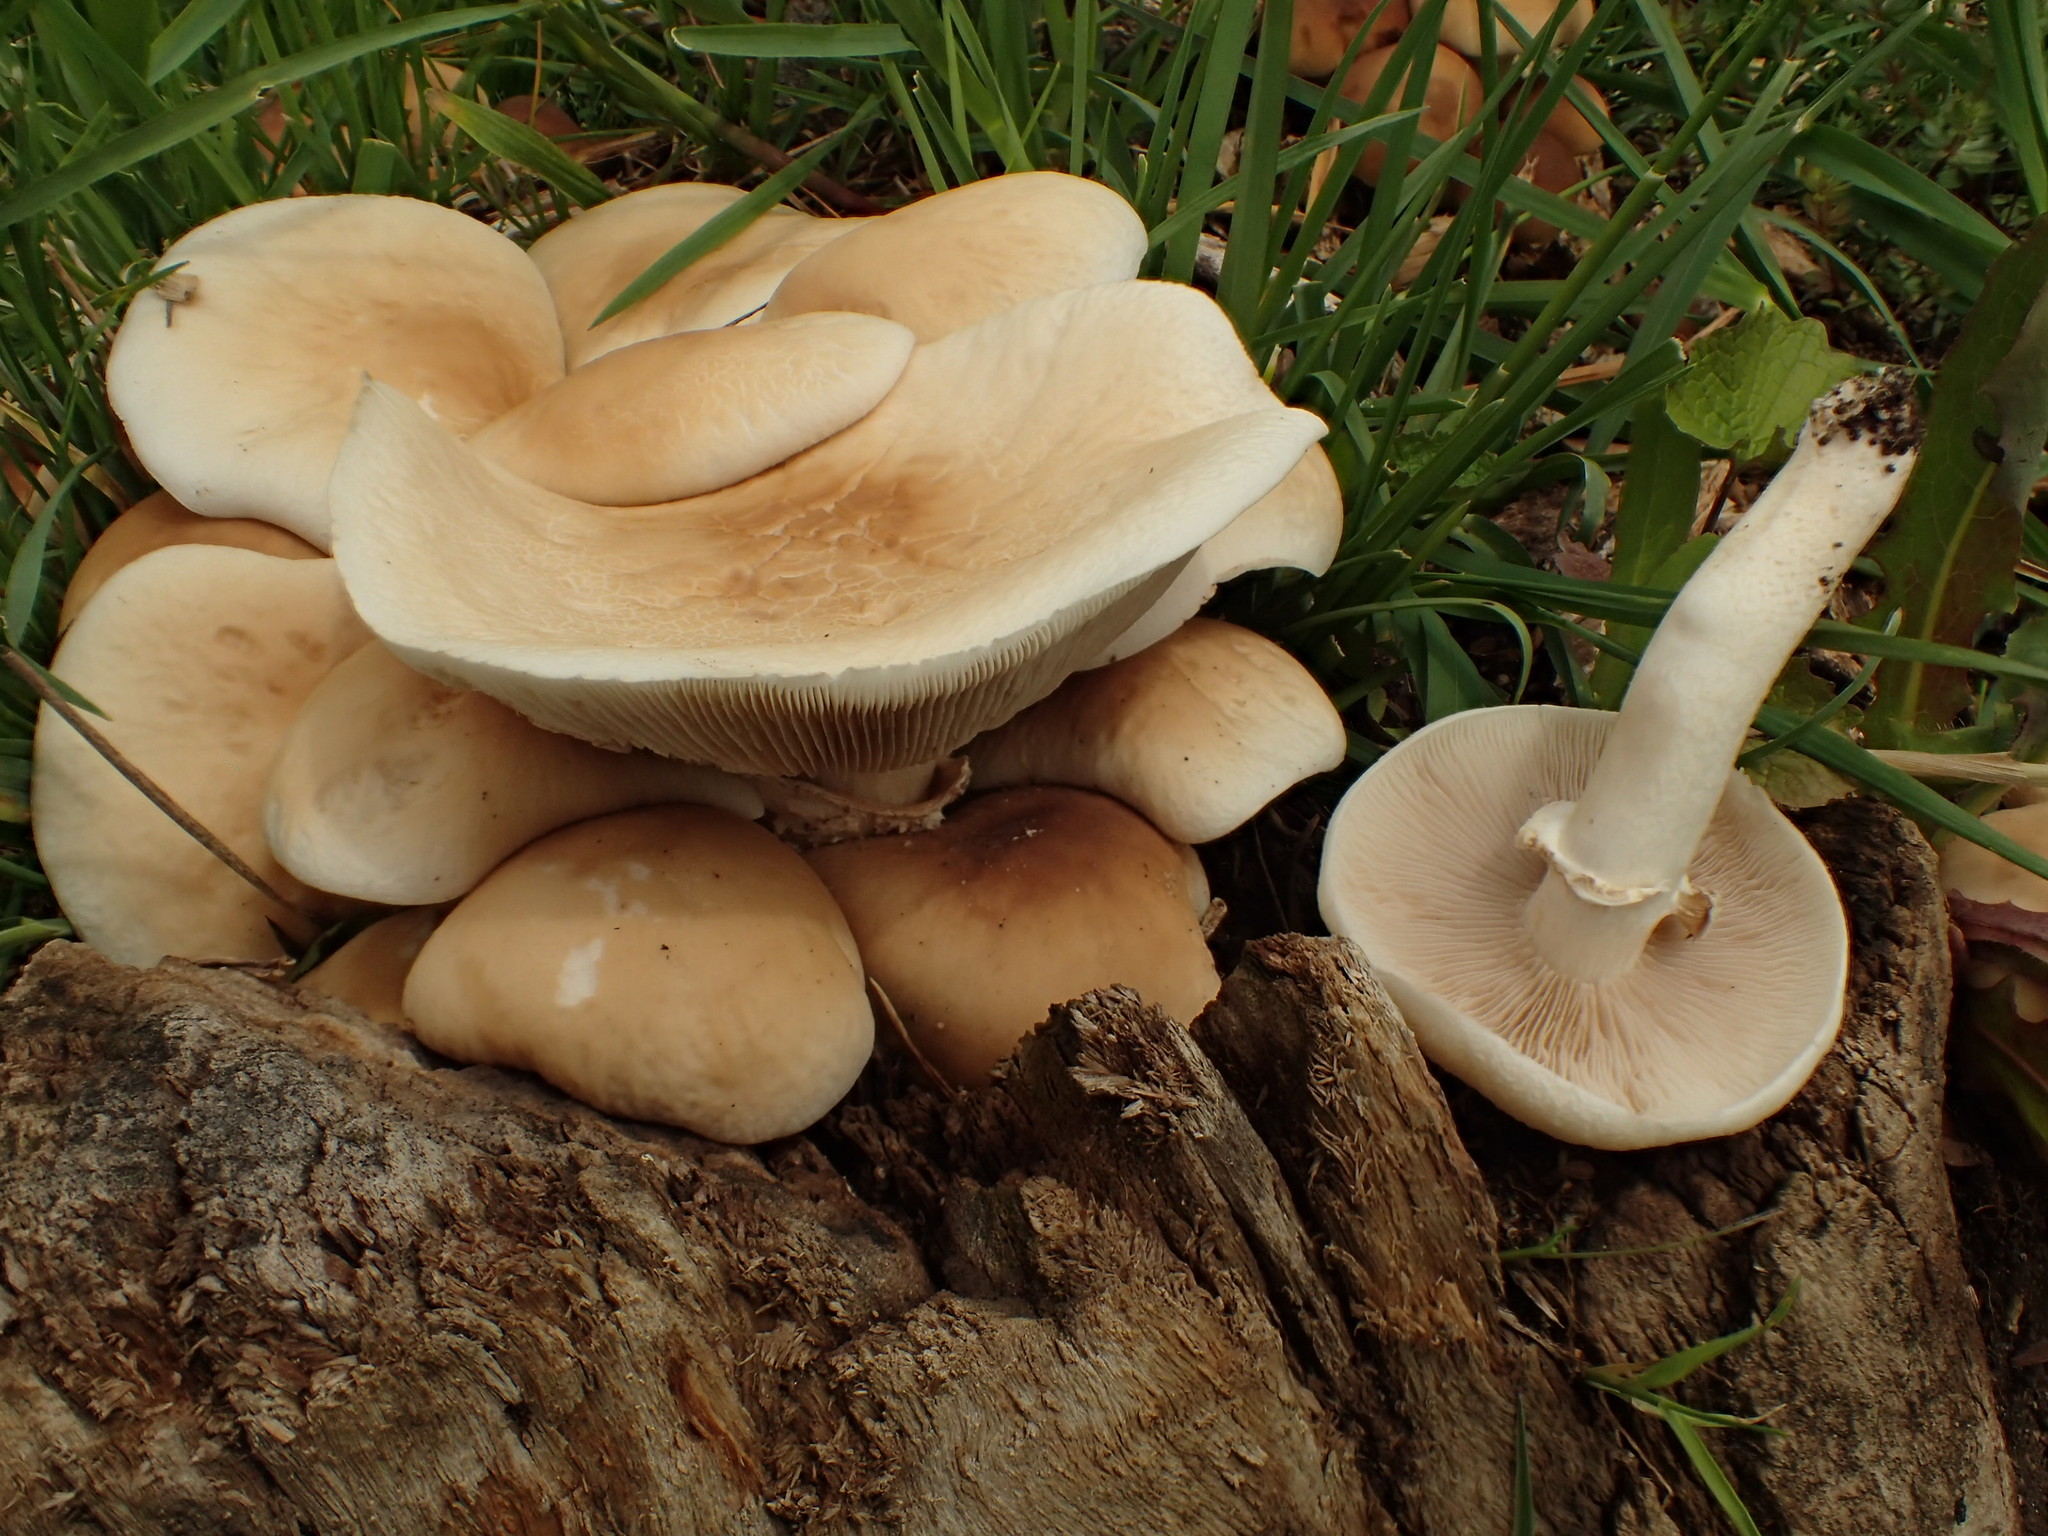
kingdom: Fungi
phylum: Basidiomycota
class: Agaricomycetes
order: Agaricales
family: Tubariaceae
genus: Cyclocybe
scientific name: Cyclocybe cylindracea
